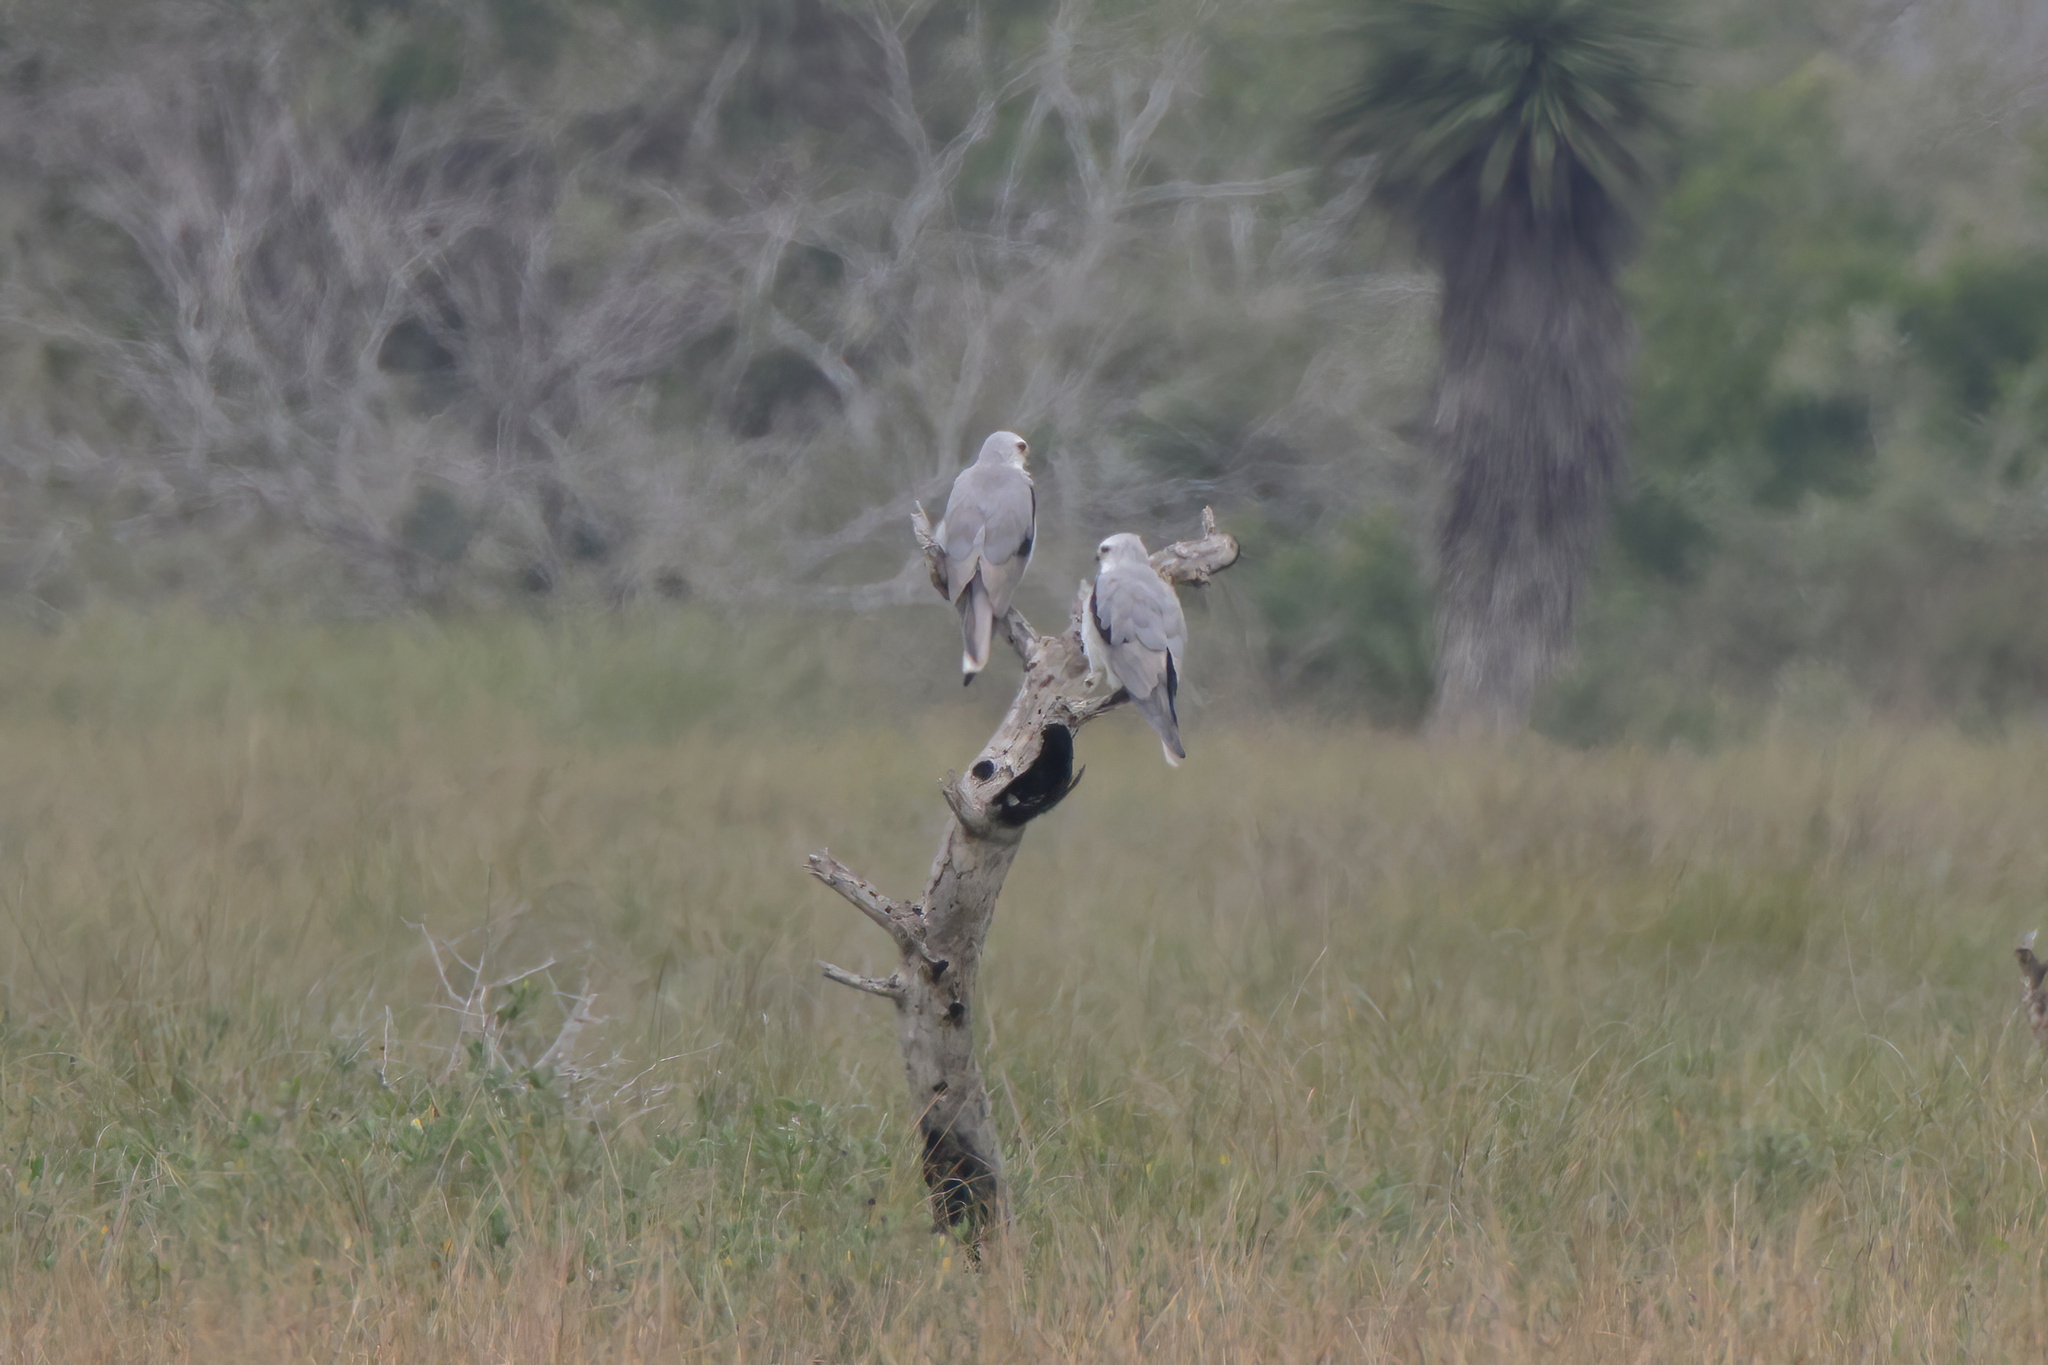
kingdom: Animalia
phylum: Chordata
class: Aves
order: Accipitriformes
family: Accipitridae
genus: Elanus
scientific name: Elanus leucurus
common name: White-tailed kite
